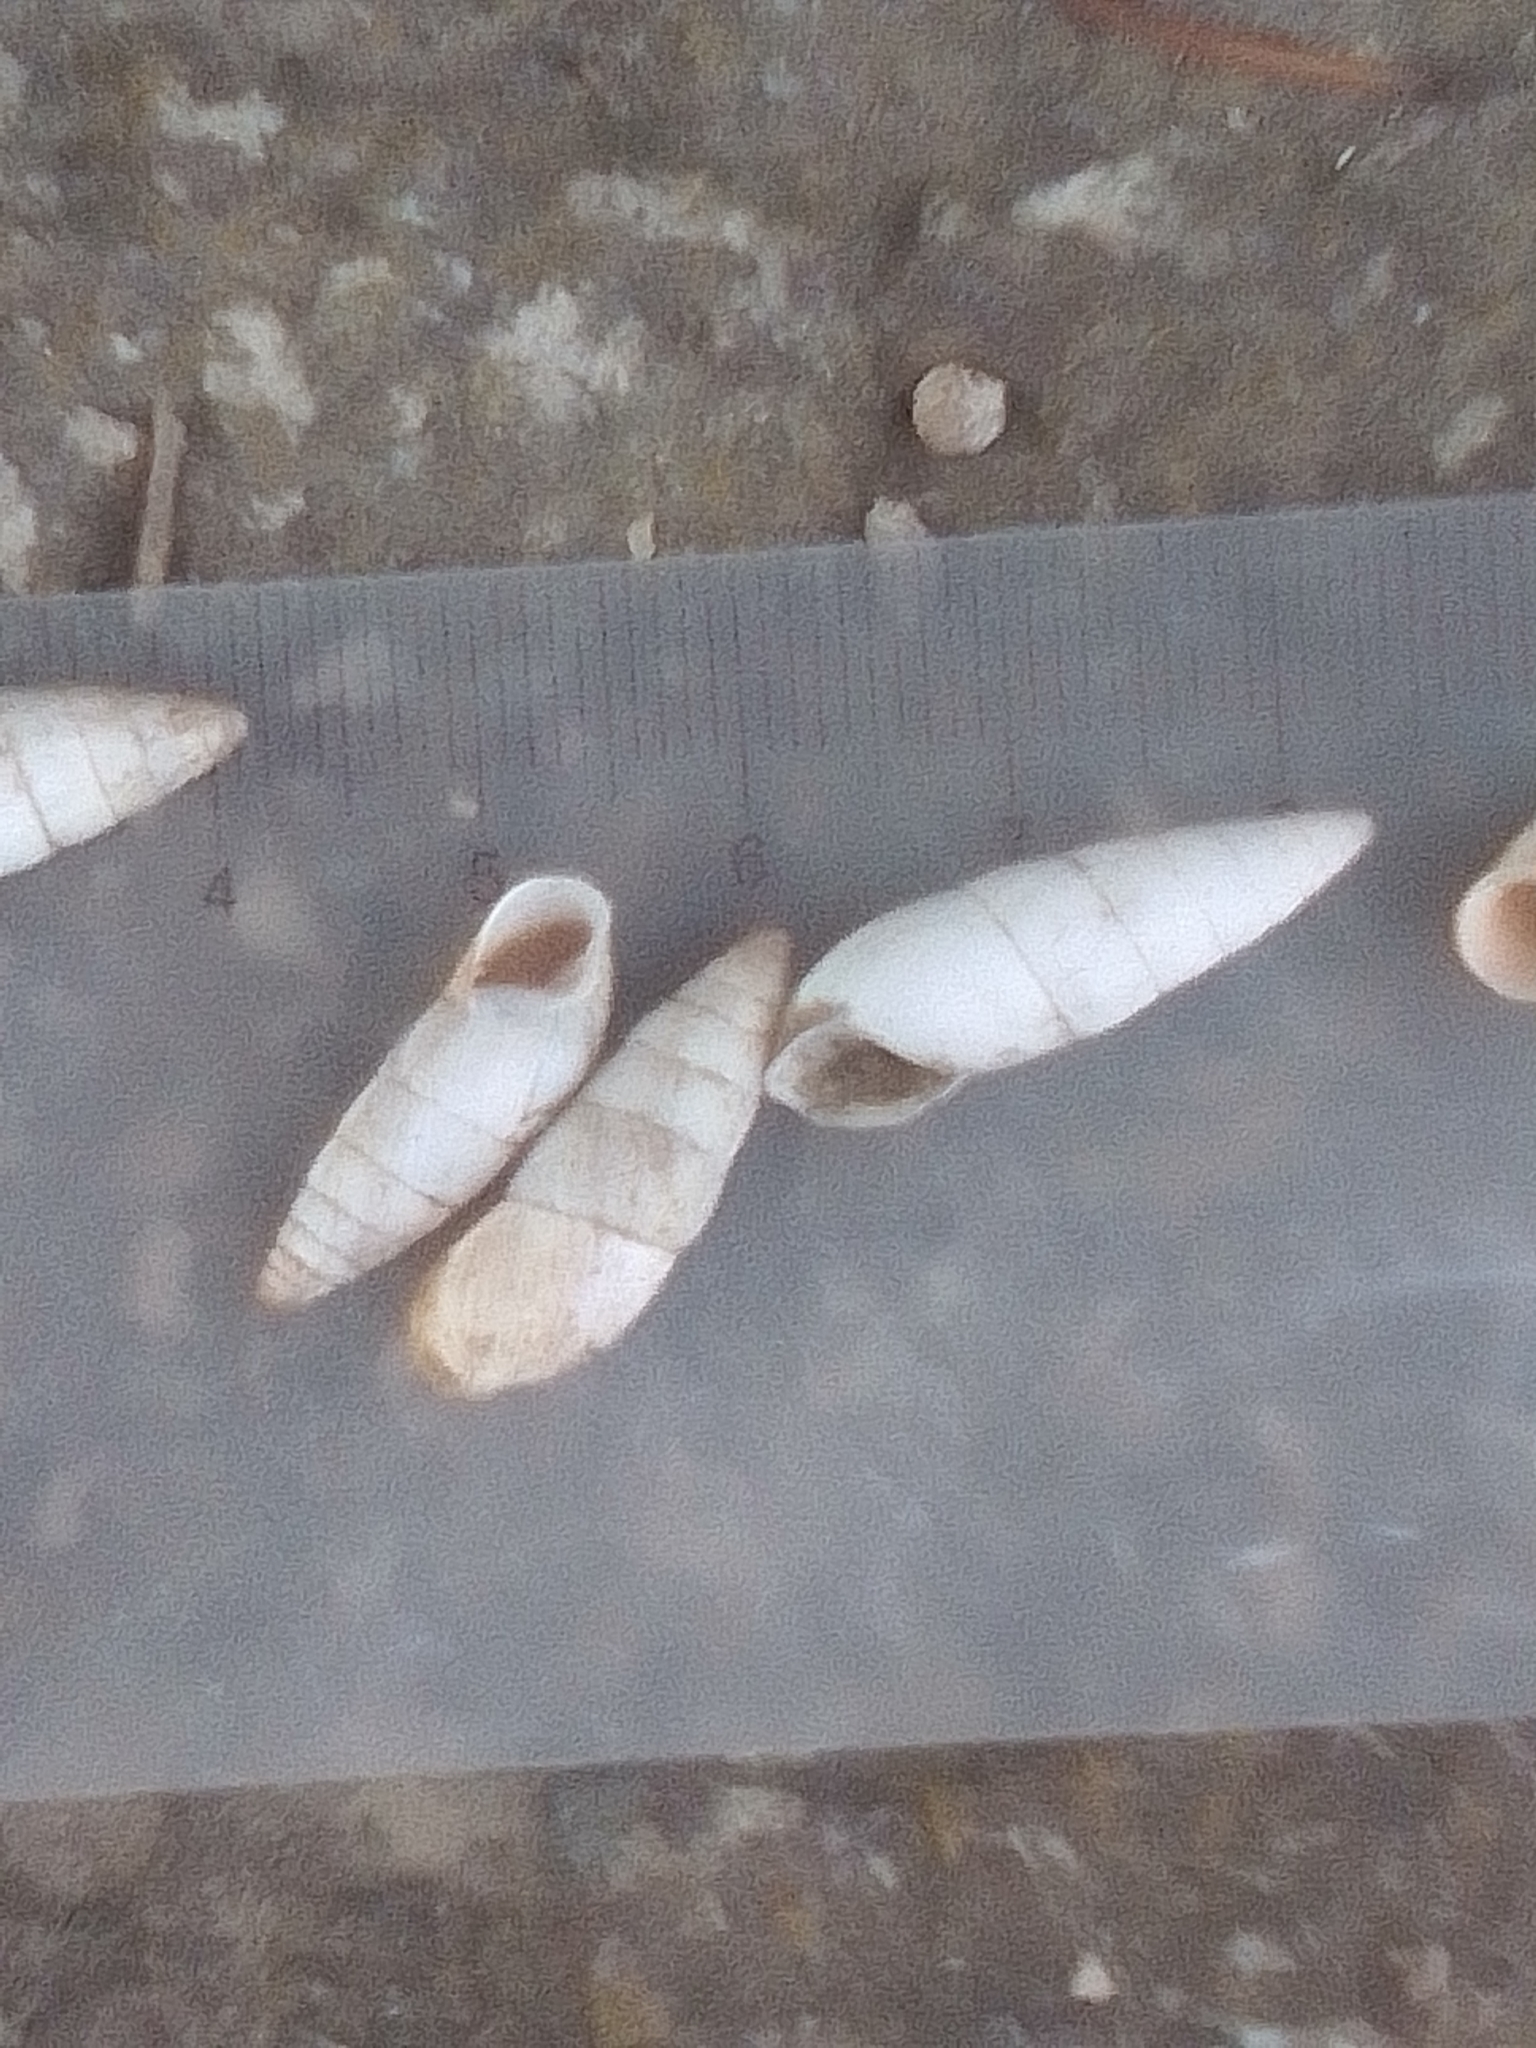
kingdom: Animalia
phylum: Mollusca
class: Gastropoda
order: Stylommatophora
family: Enidae
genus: Brephulopsis
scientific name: Brephulopsis cylindrica
